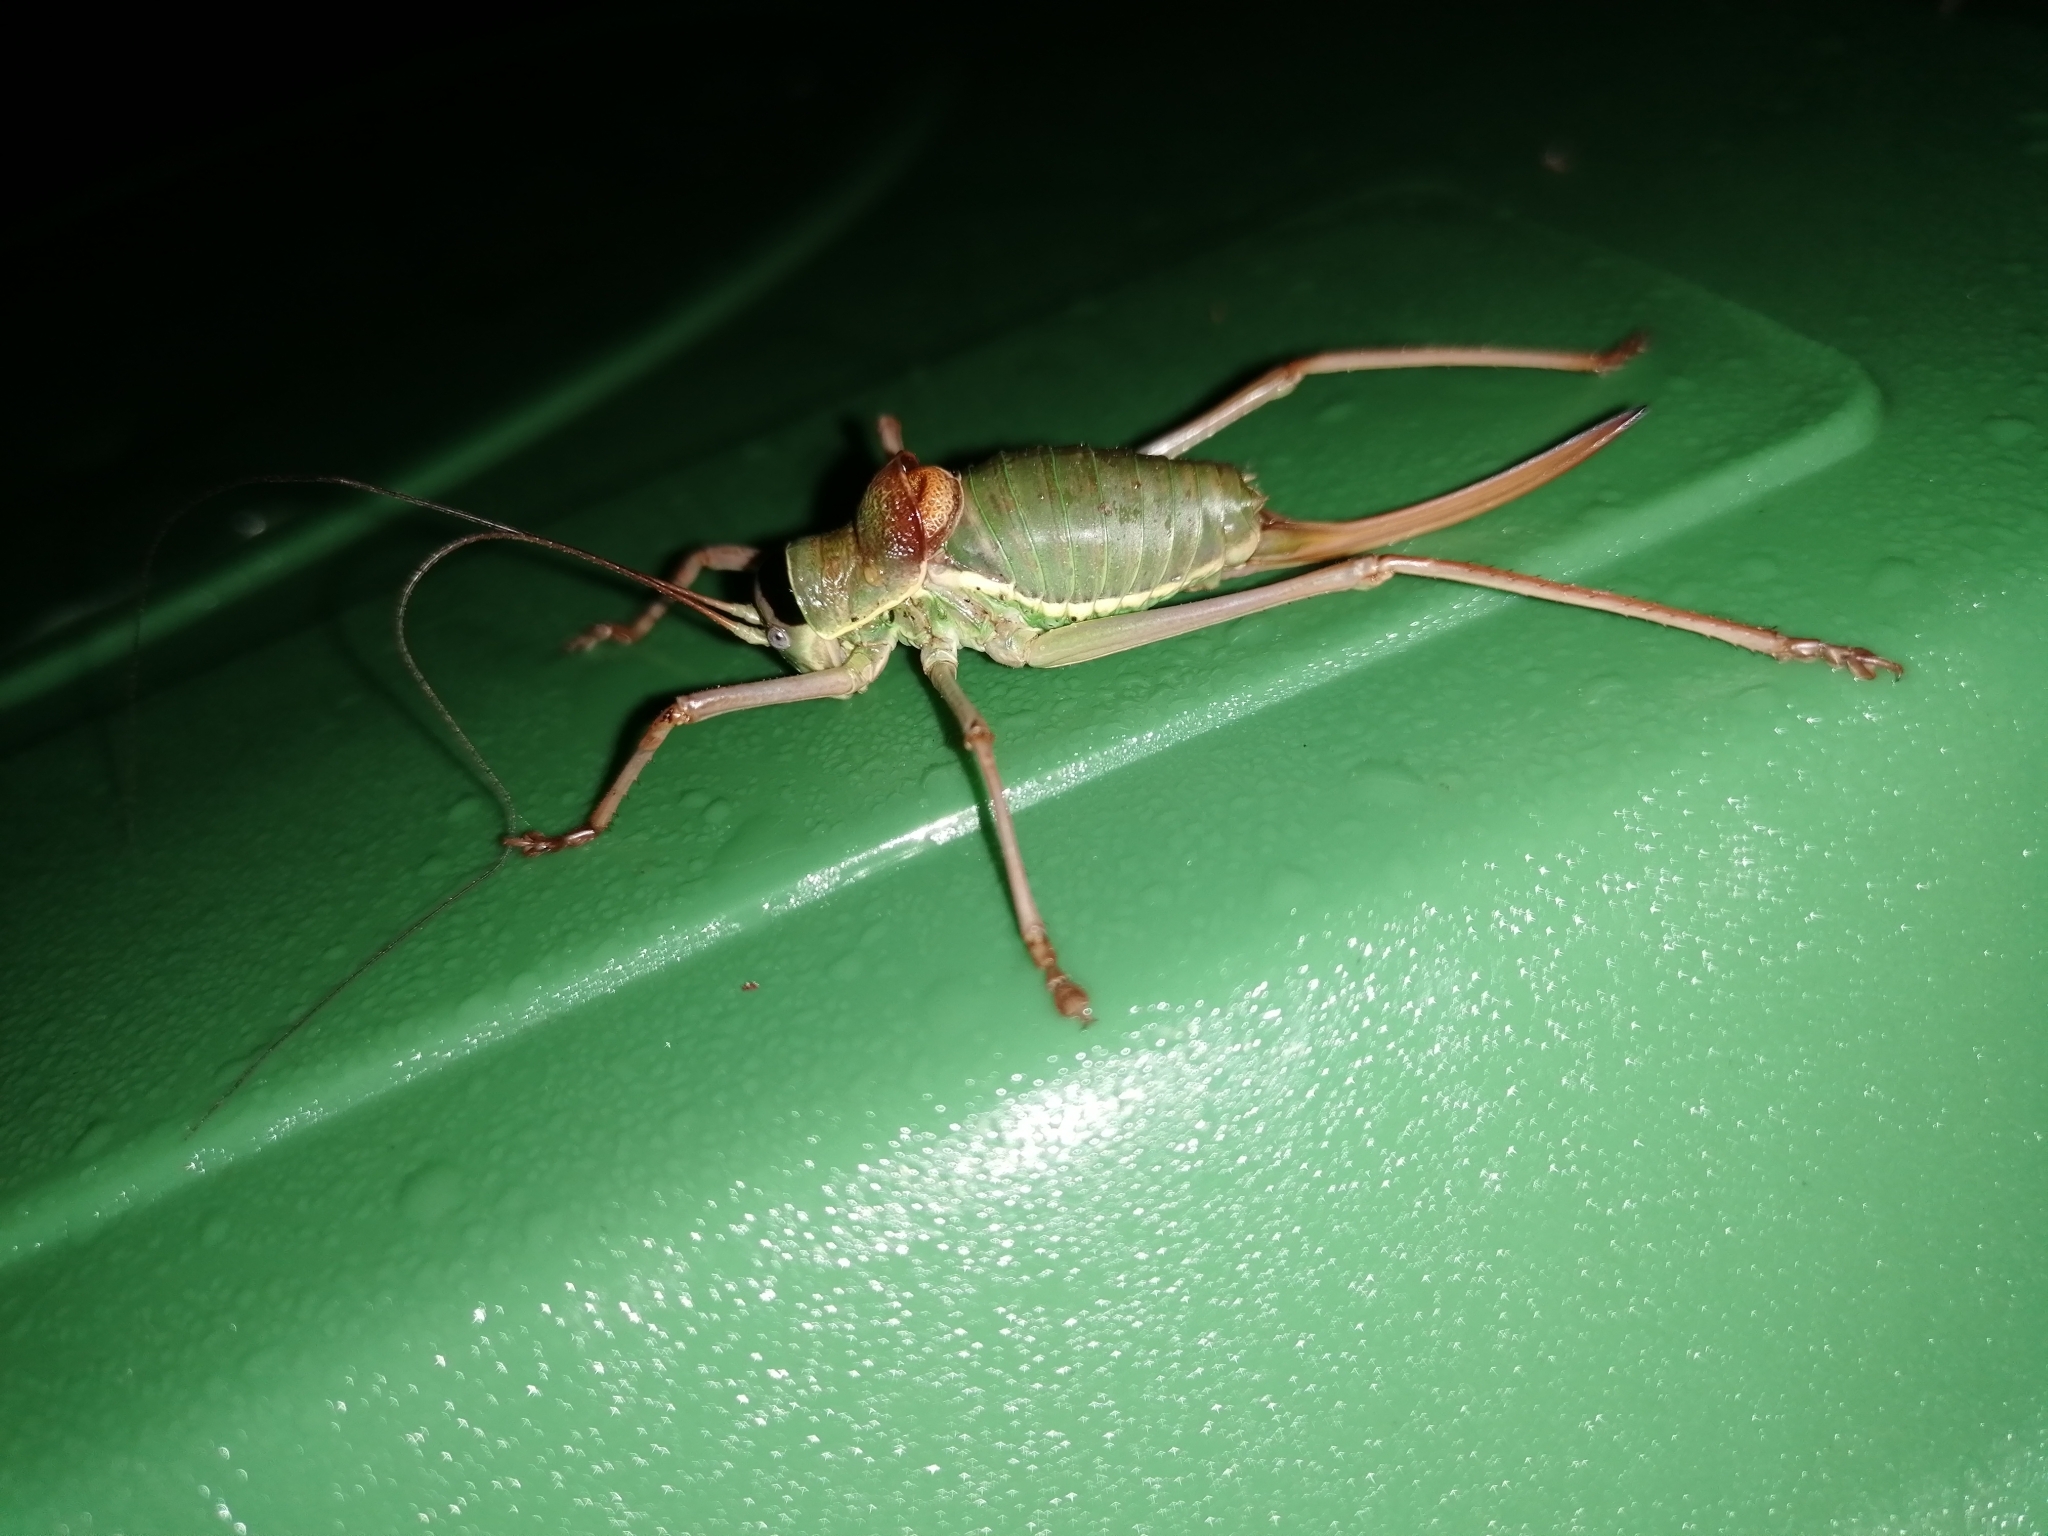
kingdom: Animalia
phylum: Arthropoda
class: Insecta
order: Orthoptera
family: Tettigoniidae
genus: Ephippiger
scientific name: Ephippiger ephippiger
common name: Eastern saddle bush-cricket
